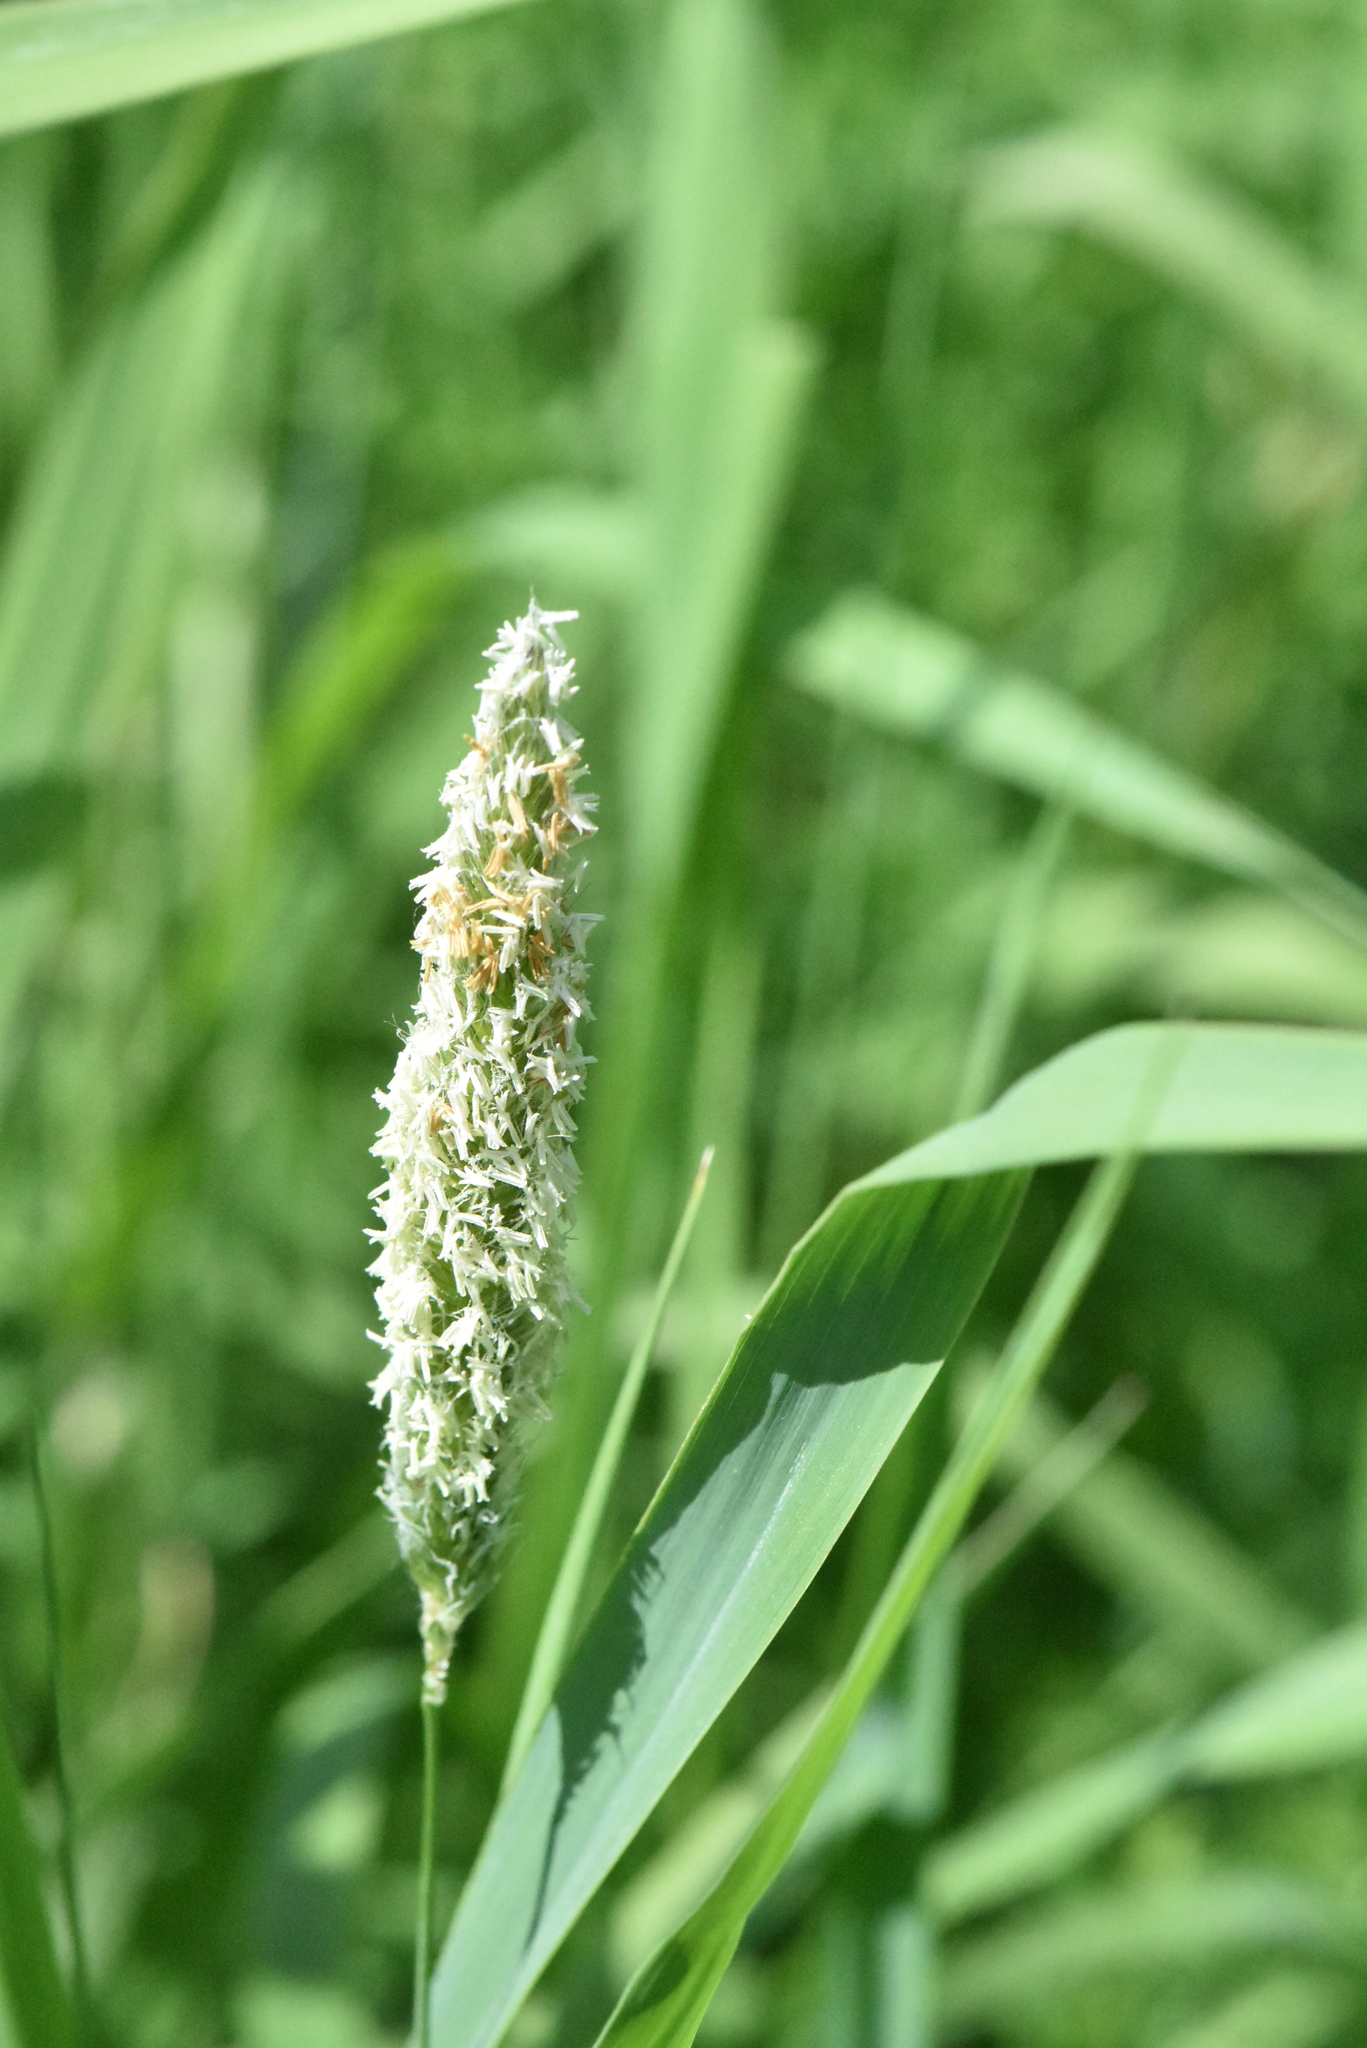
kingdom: Plantae
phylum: Tracheophyta
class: Liliopsida
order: Poales
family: Poaceae
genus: Alopecurus
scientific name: Alopecurus pratensis
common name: Meadow foxtail
